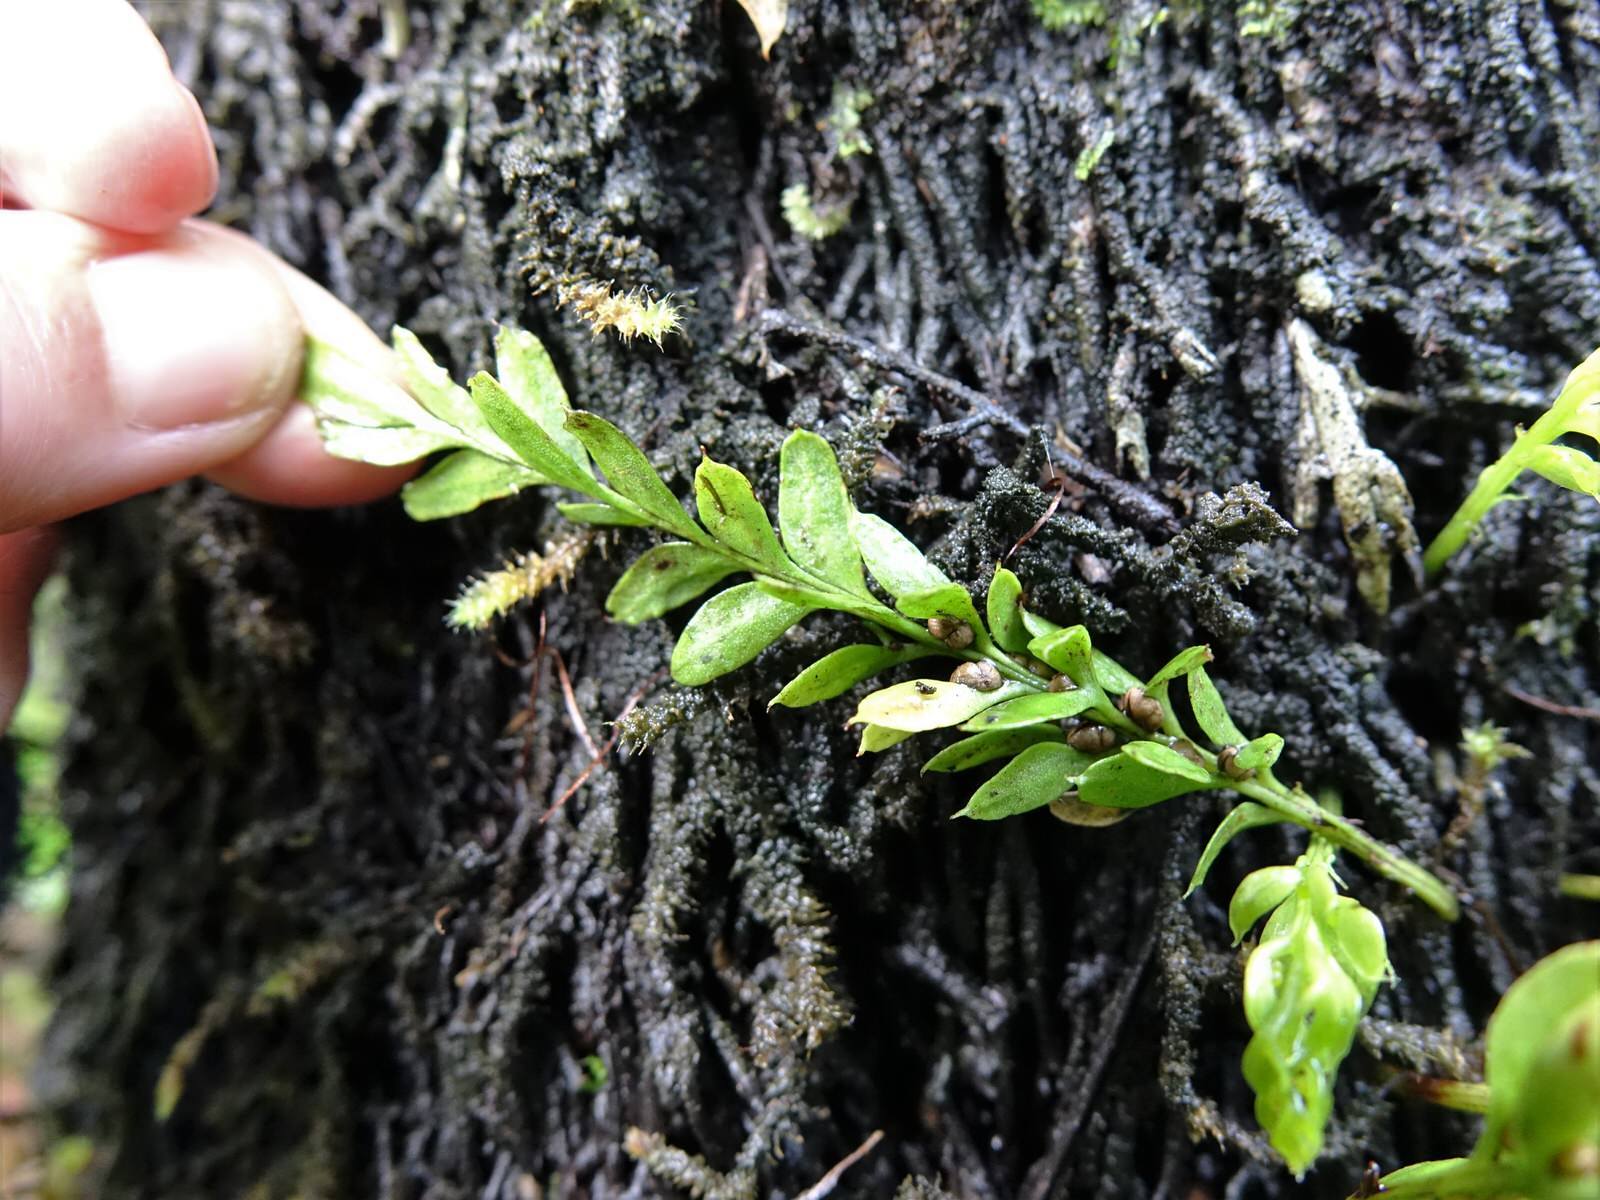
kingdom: Plantae
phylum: Tracheophyta
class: Polypodiopsida
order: Psilotales
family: Psilotaceae
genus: Tmesipteris
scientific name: Tmesipteris lanceolata
